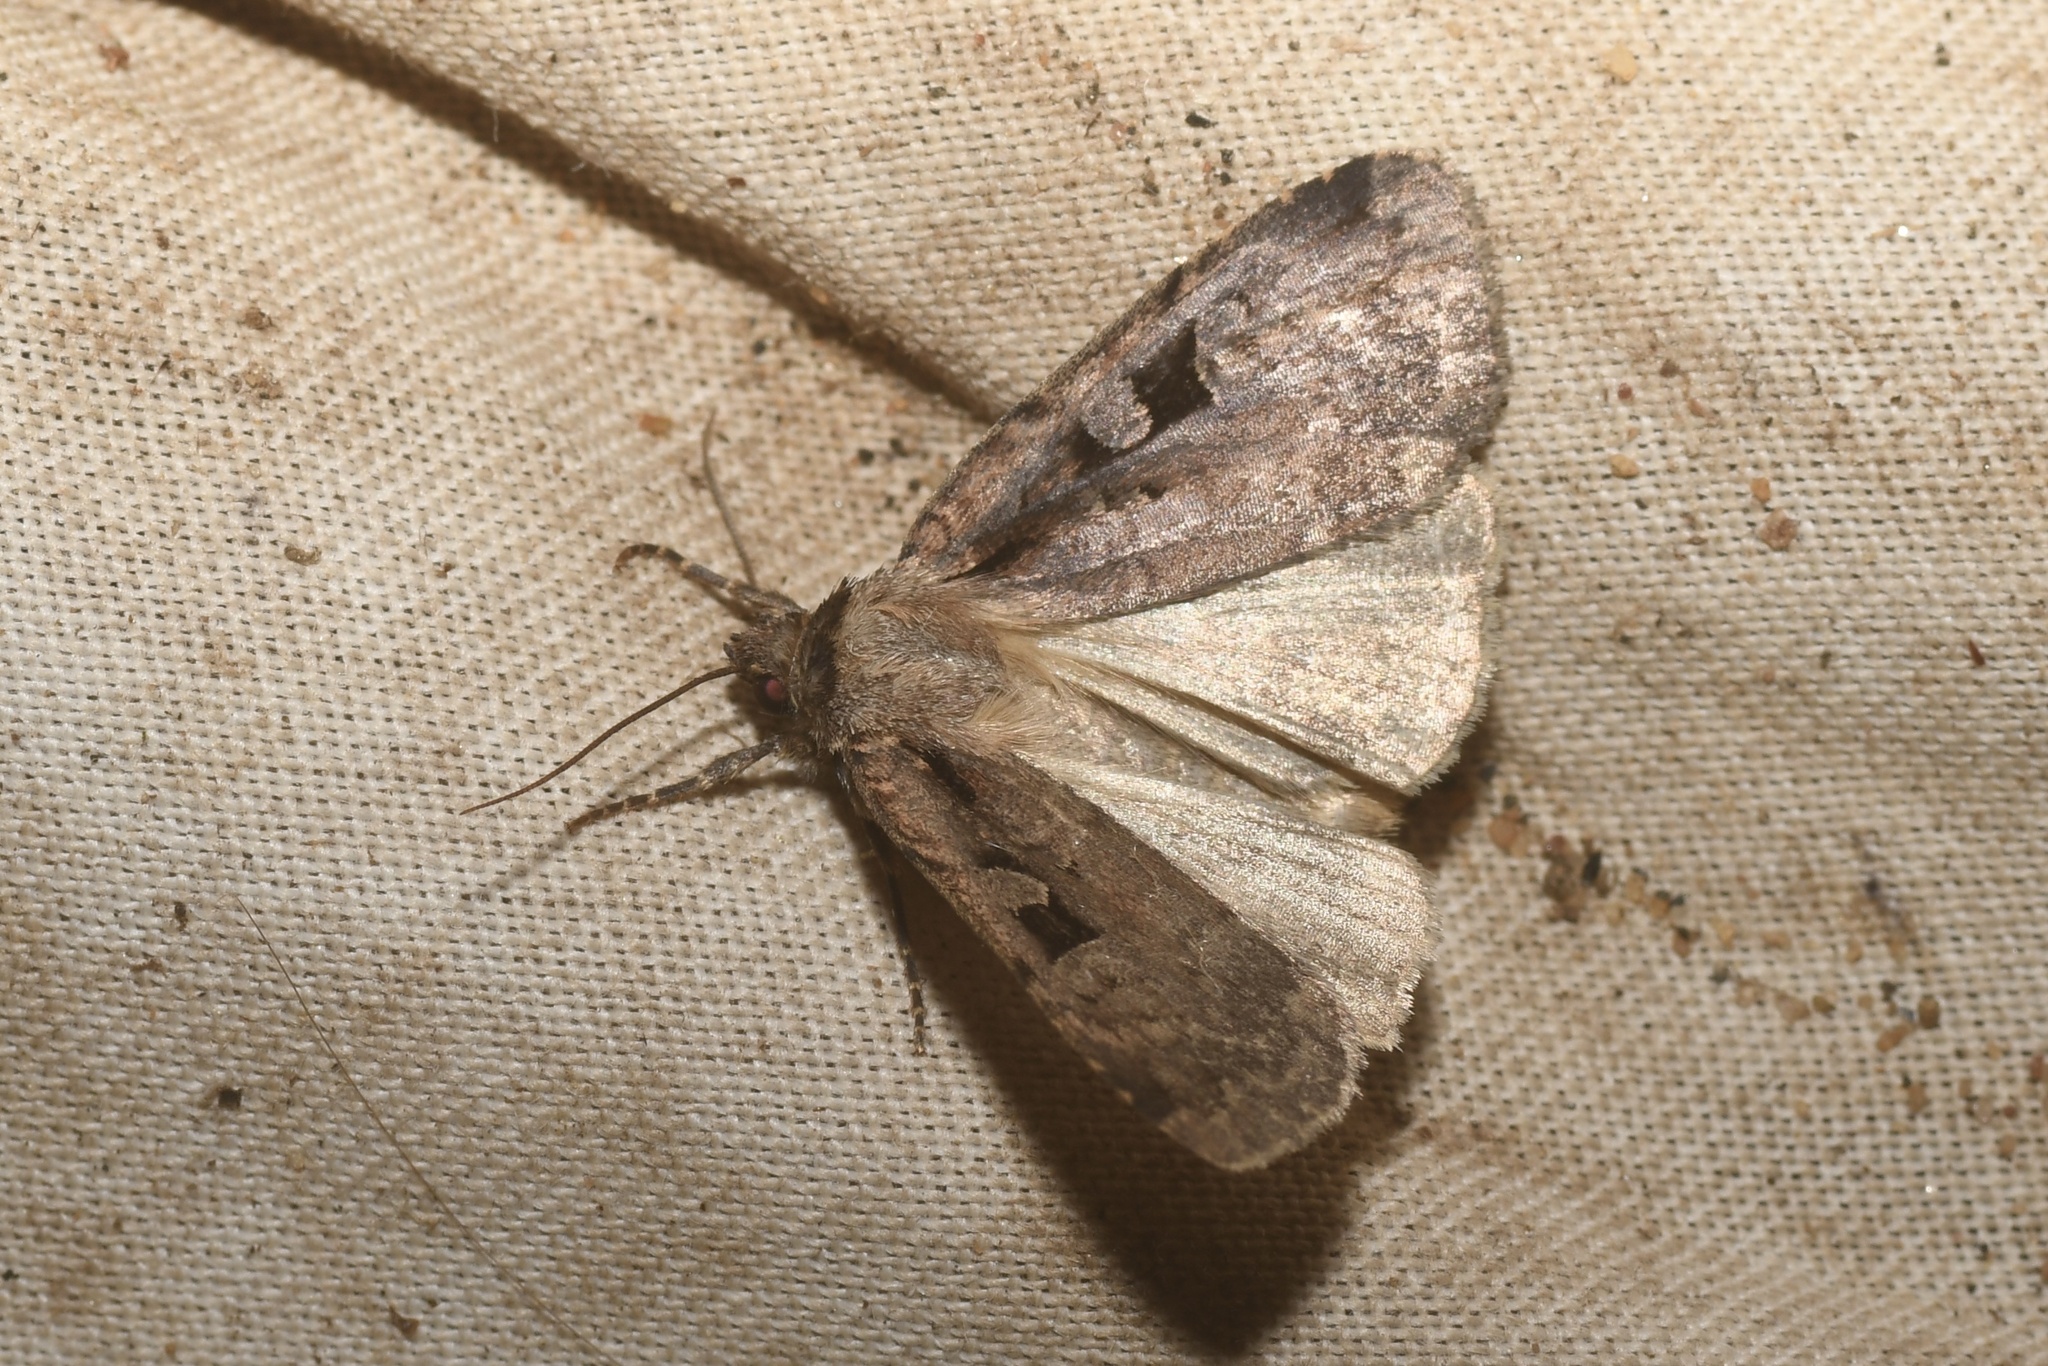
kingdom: Animalia
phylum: Arthropoda
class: Insecta
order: Lepidoptera
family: Noctuidae
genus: Eueretagrotis
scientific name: Eueretagrotis perattentus
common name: Two-spot dart moth
